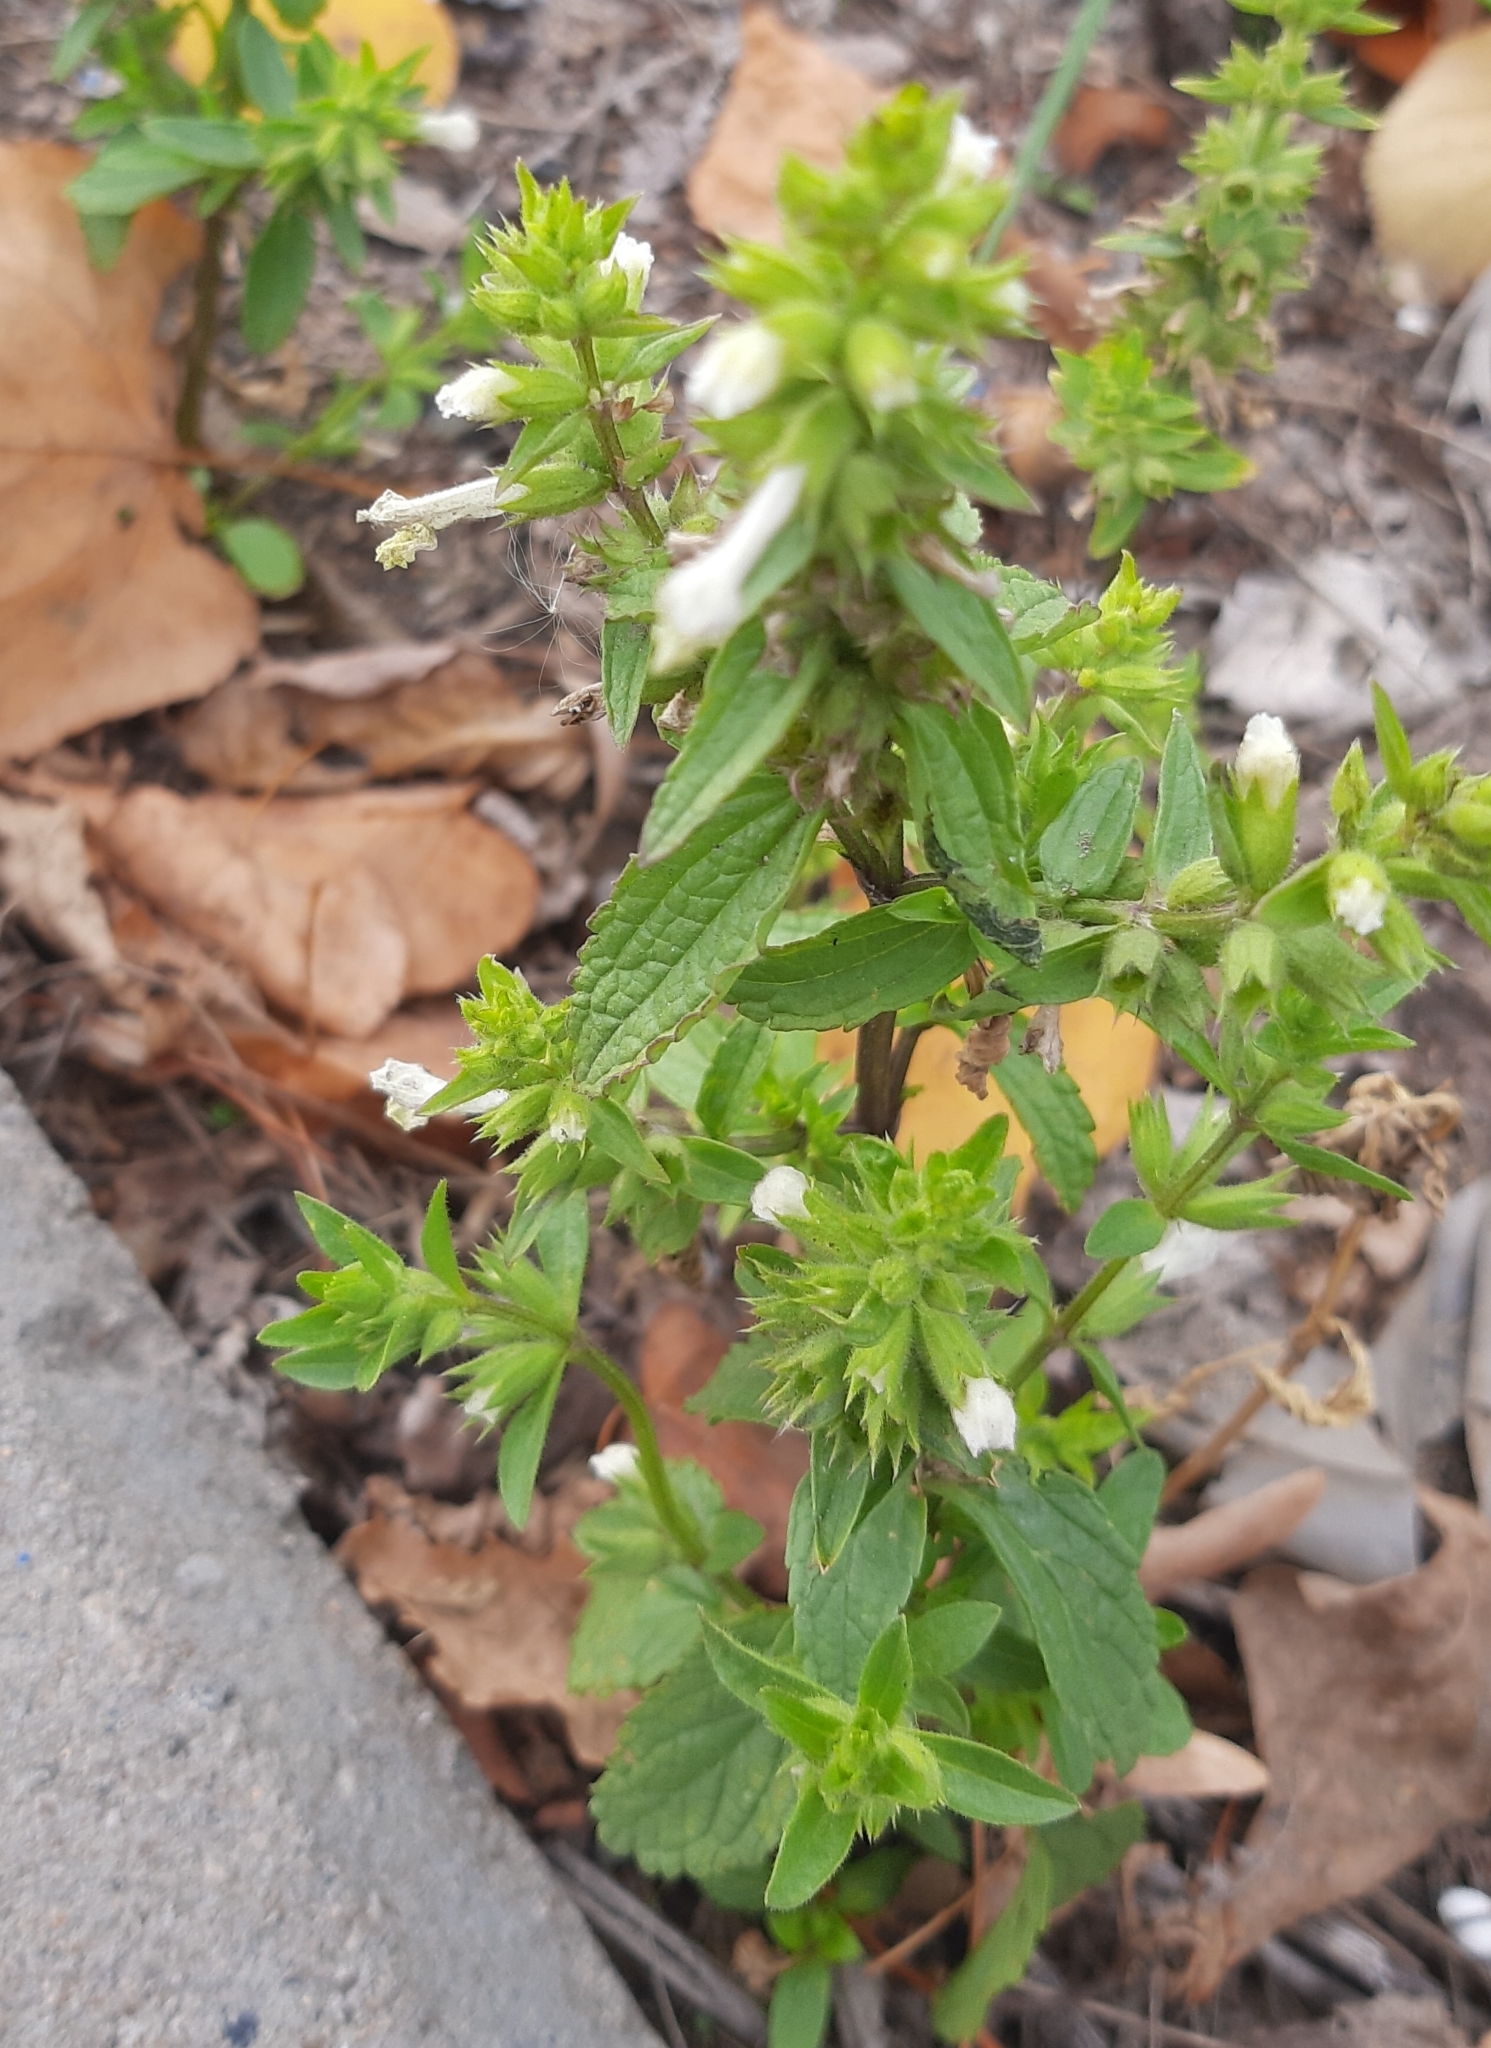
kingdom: Plantae
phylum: Tracheophyta
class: Magnoliopsida
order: Lamiales
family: Lamiaceae
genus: Stachys
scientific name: Stachys annua
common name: Annual yellow-woundwort
